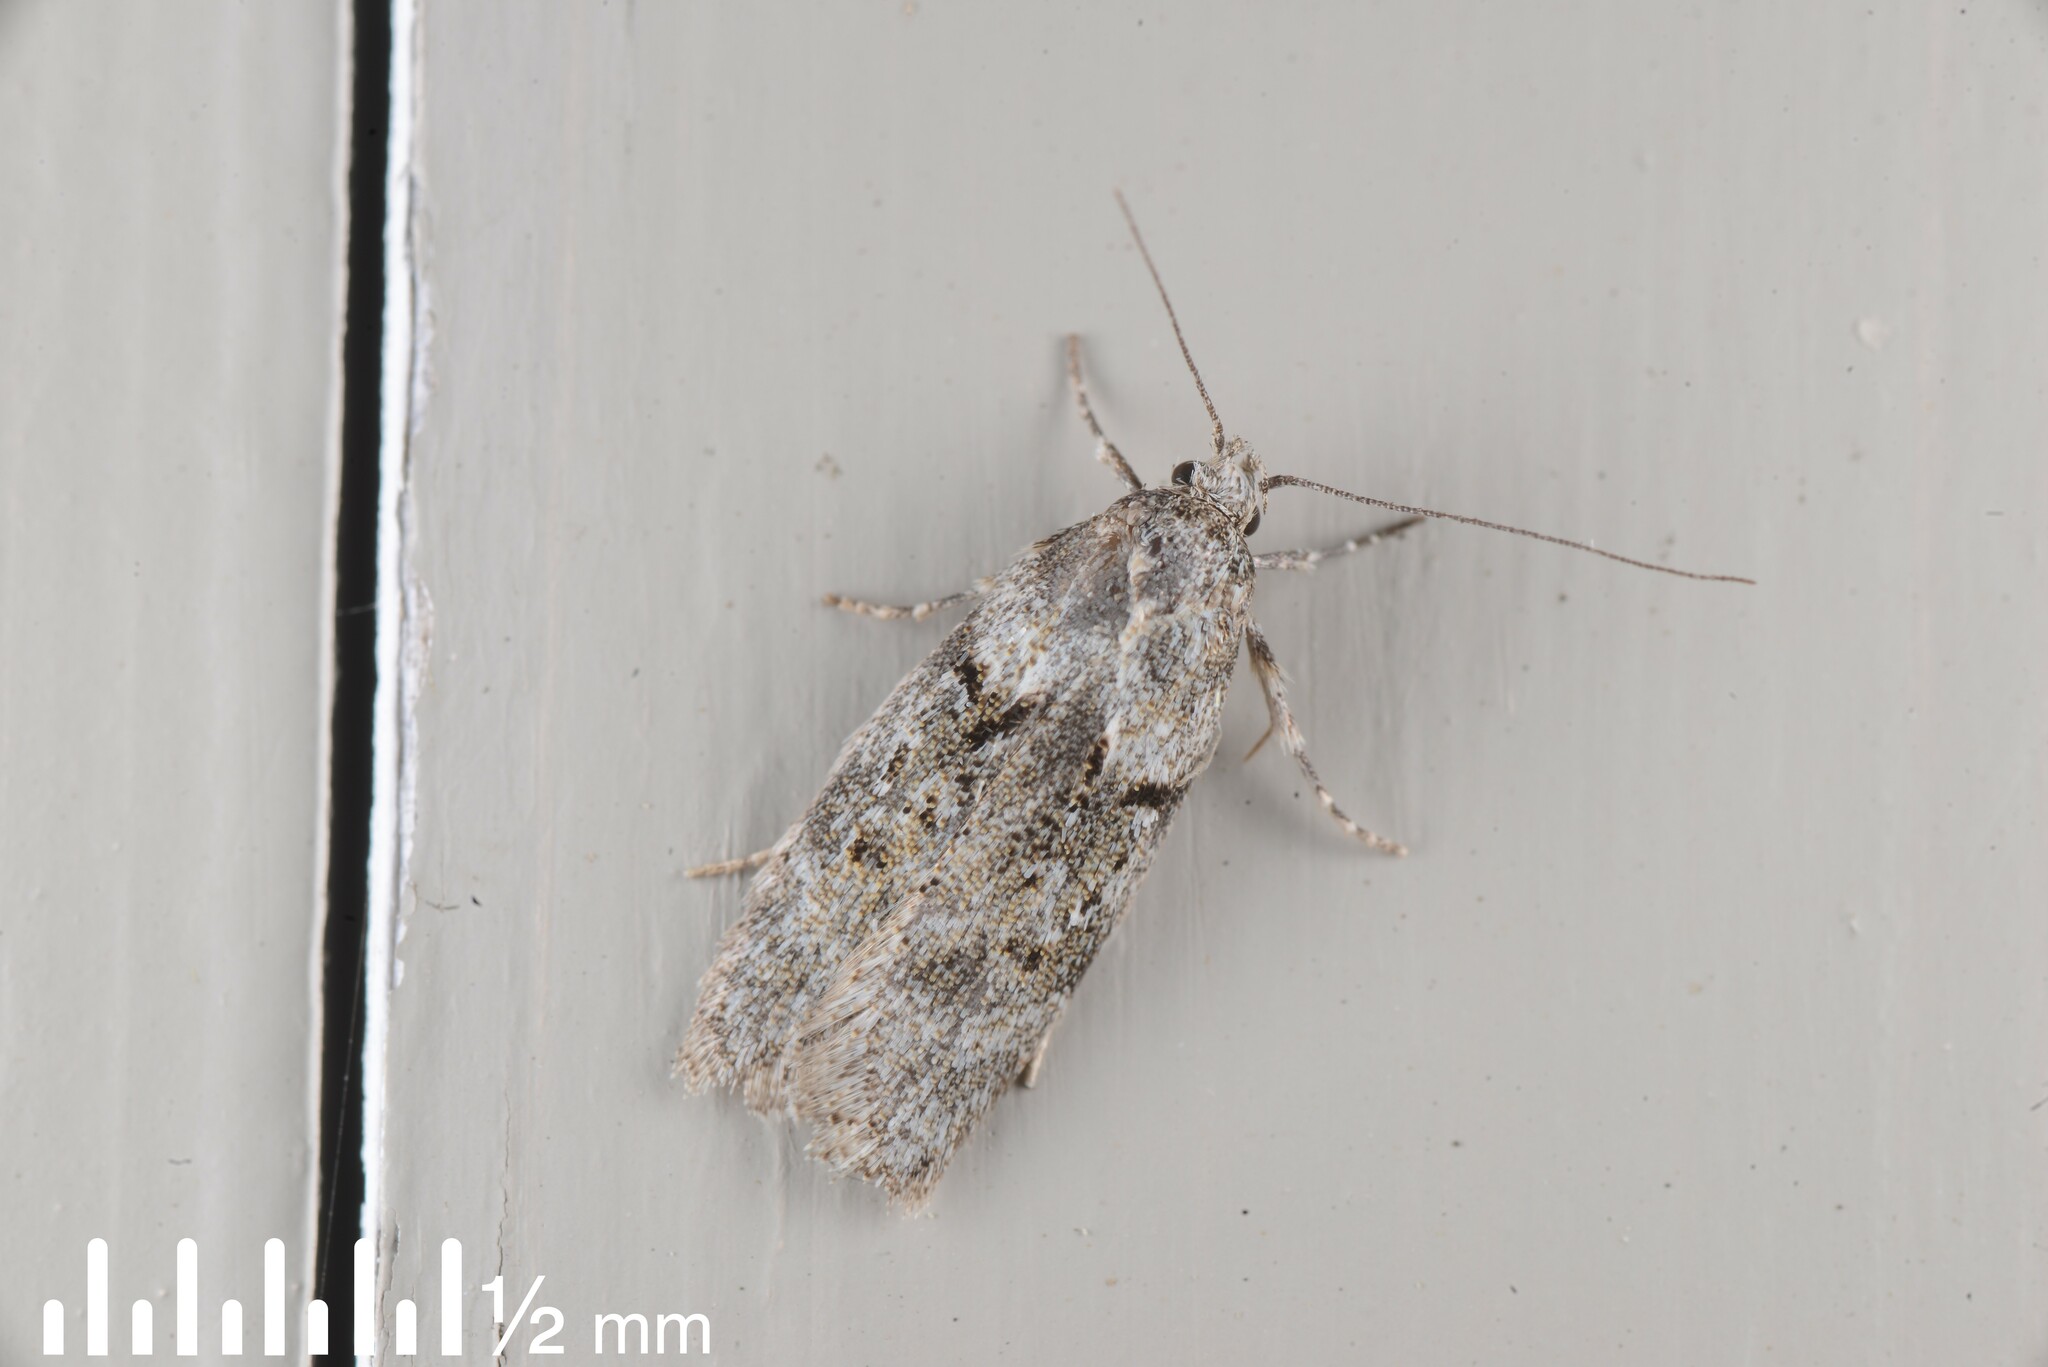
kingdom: Animalia
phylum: Arthropoda
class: Insecta
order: Lepidoptera
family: Oecophoridae
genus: Izatha
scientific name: Izatha convulsella
